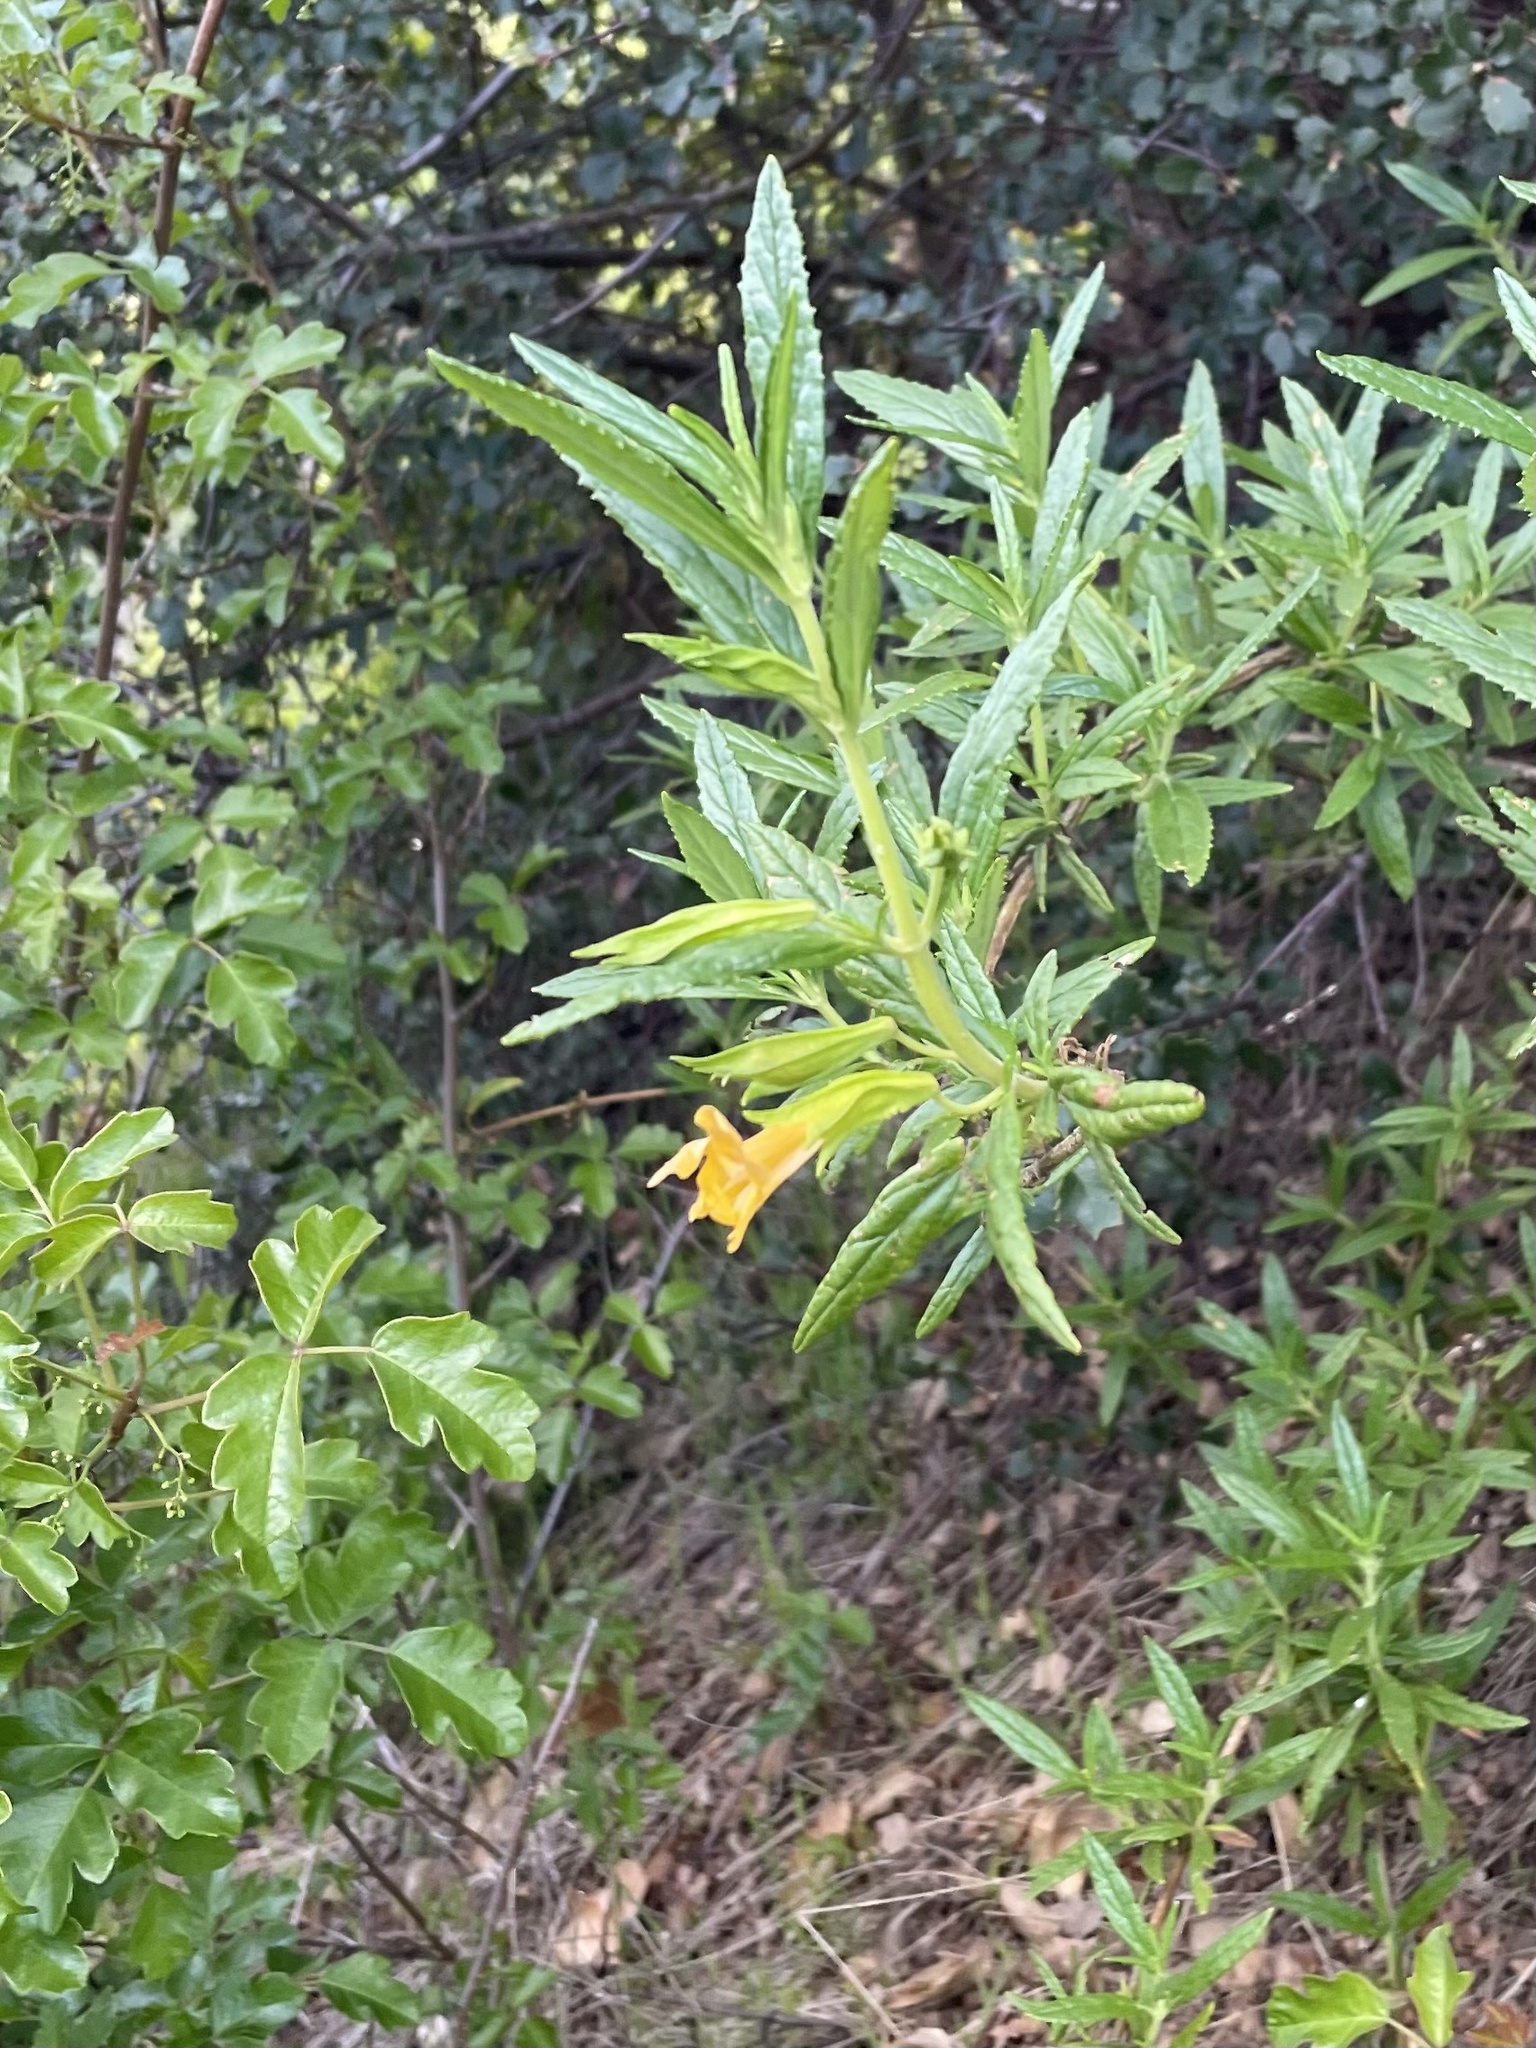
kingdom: Plantae
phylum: Tracheophyta
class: Magnoliopsida
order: Lamiales
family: Phrymaceae
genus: Diplacus
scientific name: Diplacus aurantiacus
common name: Bush monkey-flower
